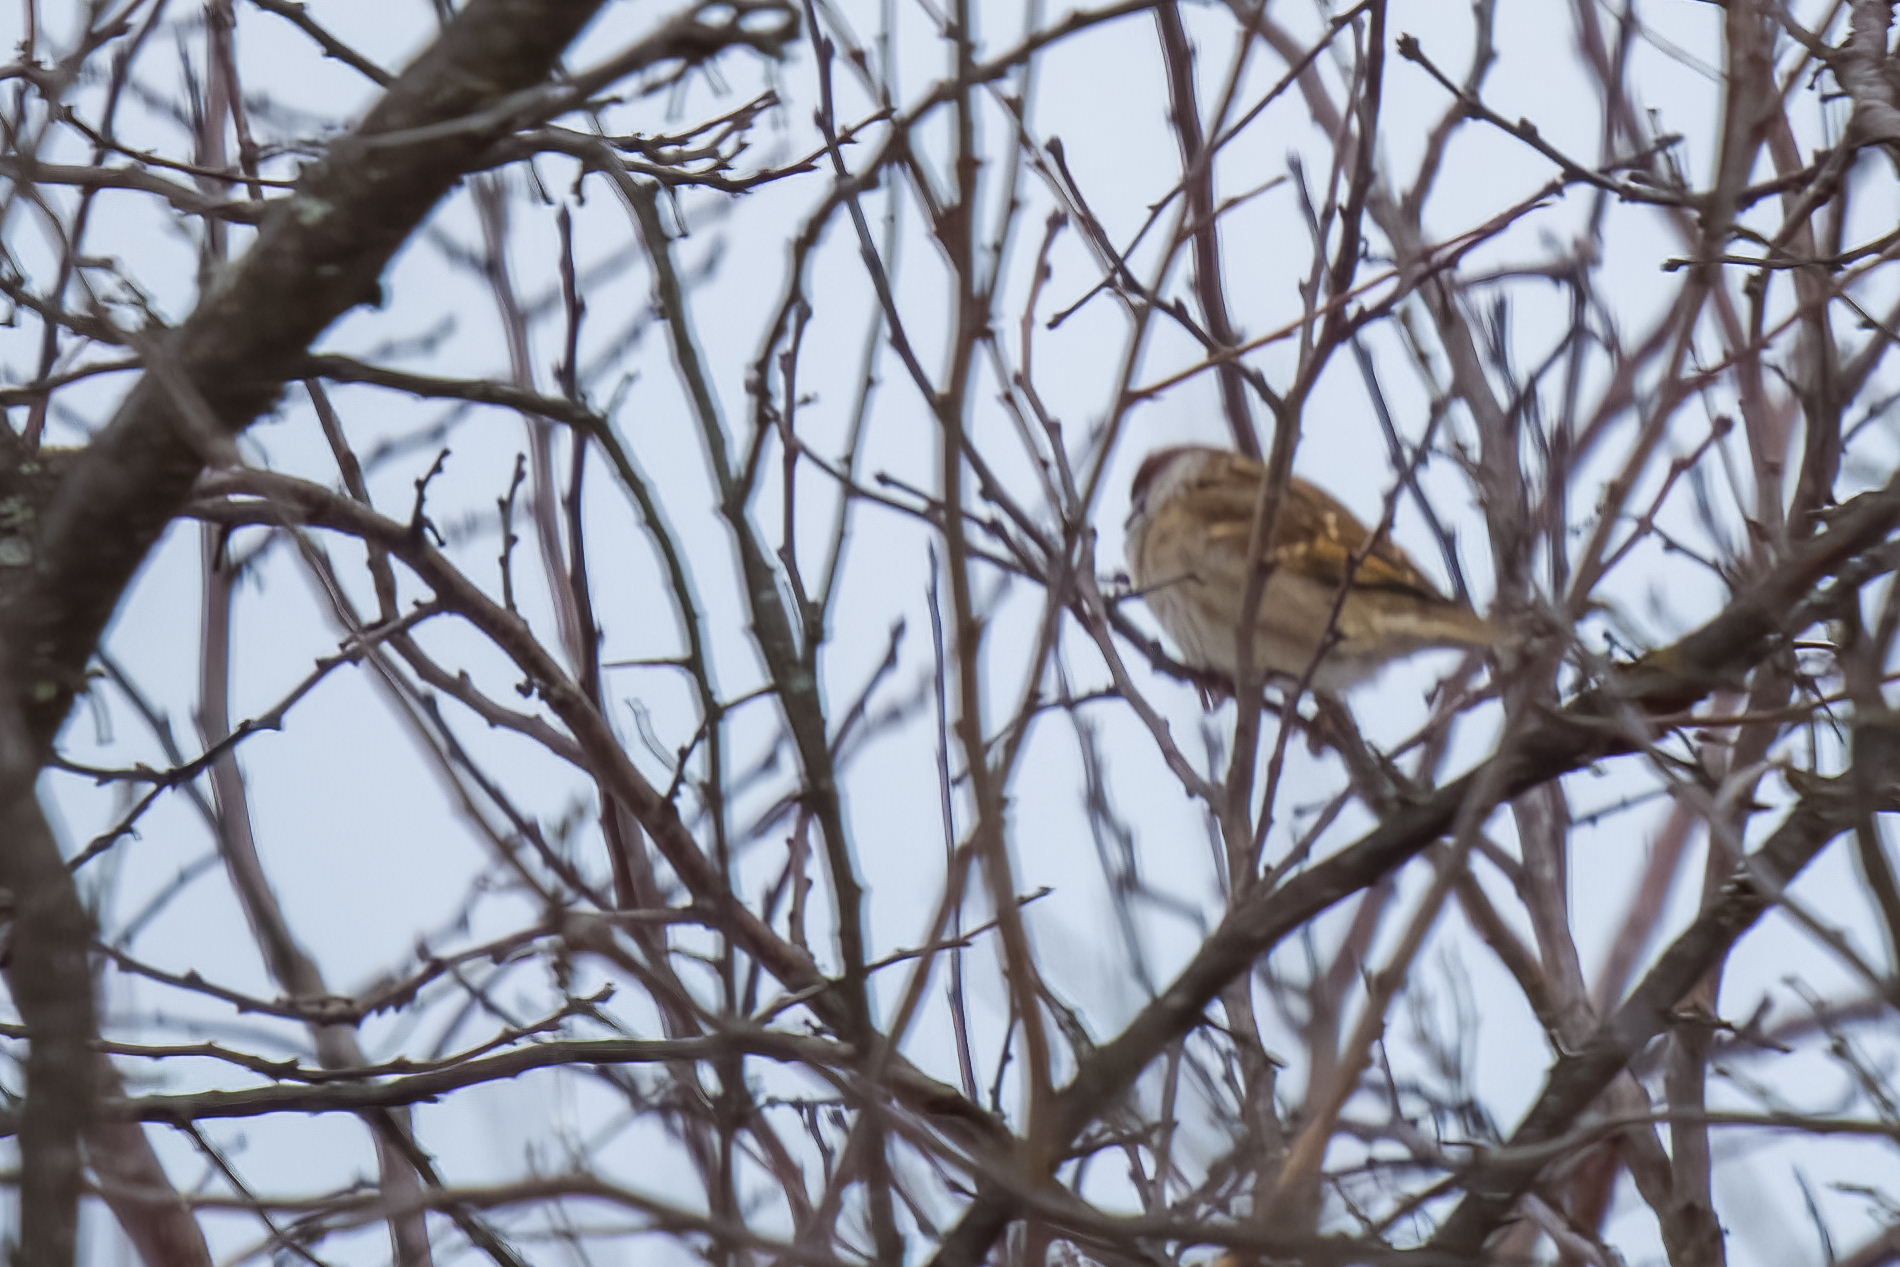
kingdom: Animalia
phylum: Chordata
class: Aves
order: Passeriformes
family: Passeridae
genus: Passer
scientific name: Passer montanus
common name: Eurasian tree sparrow
